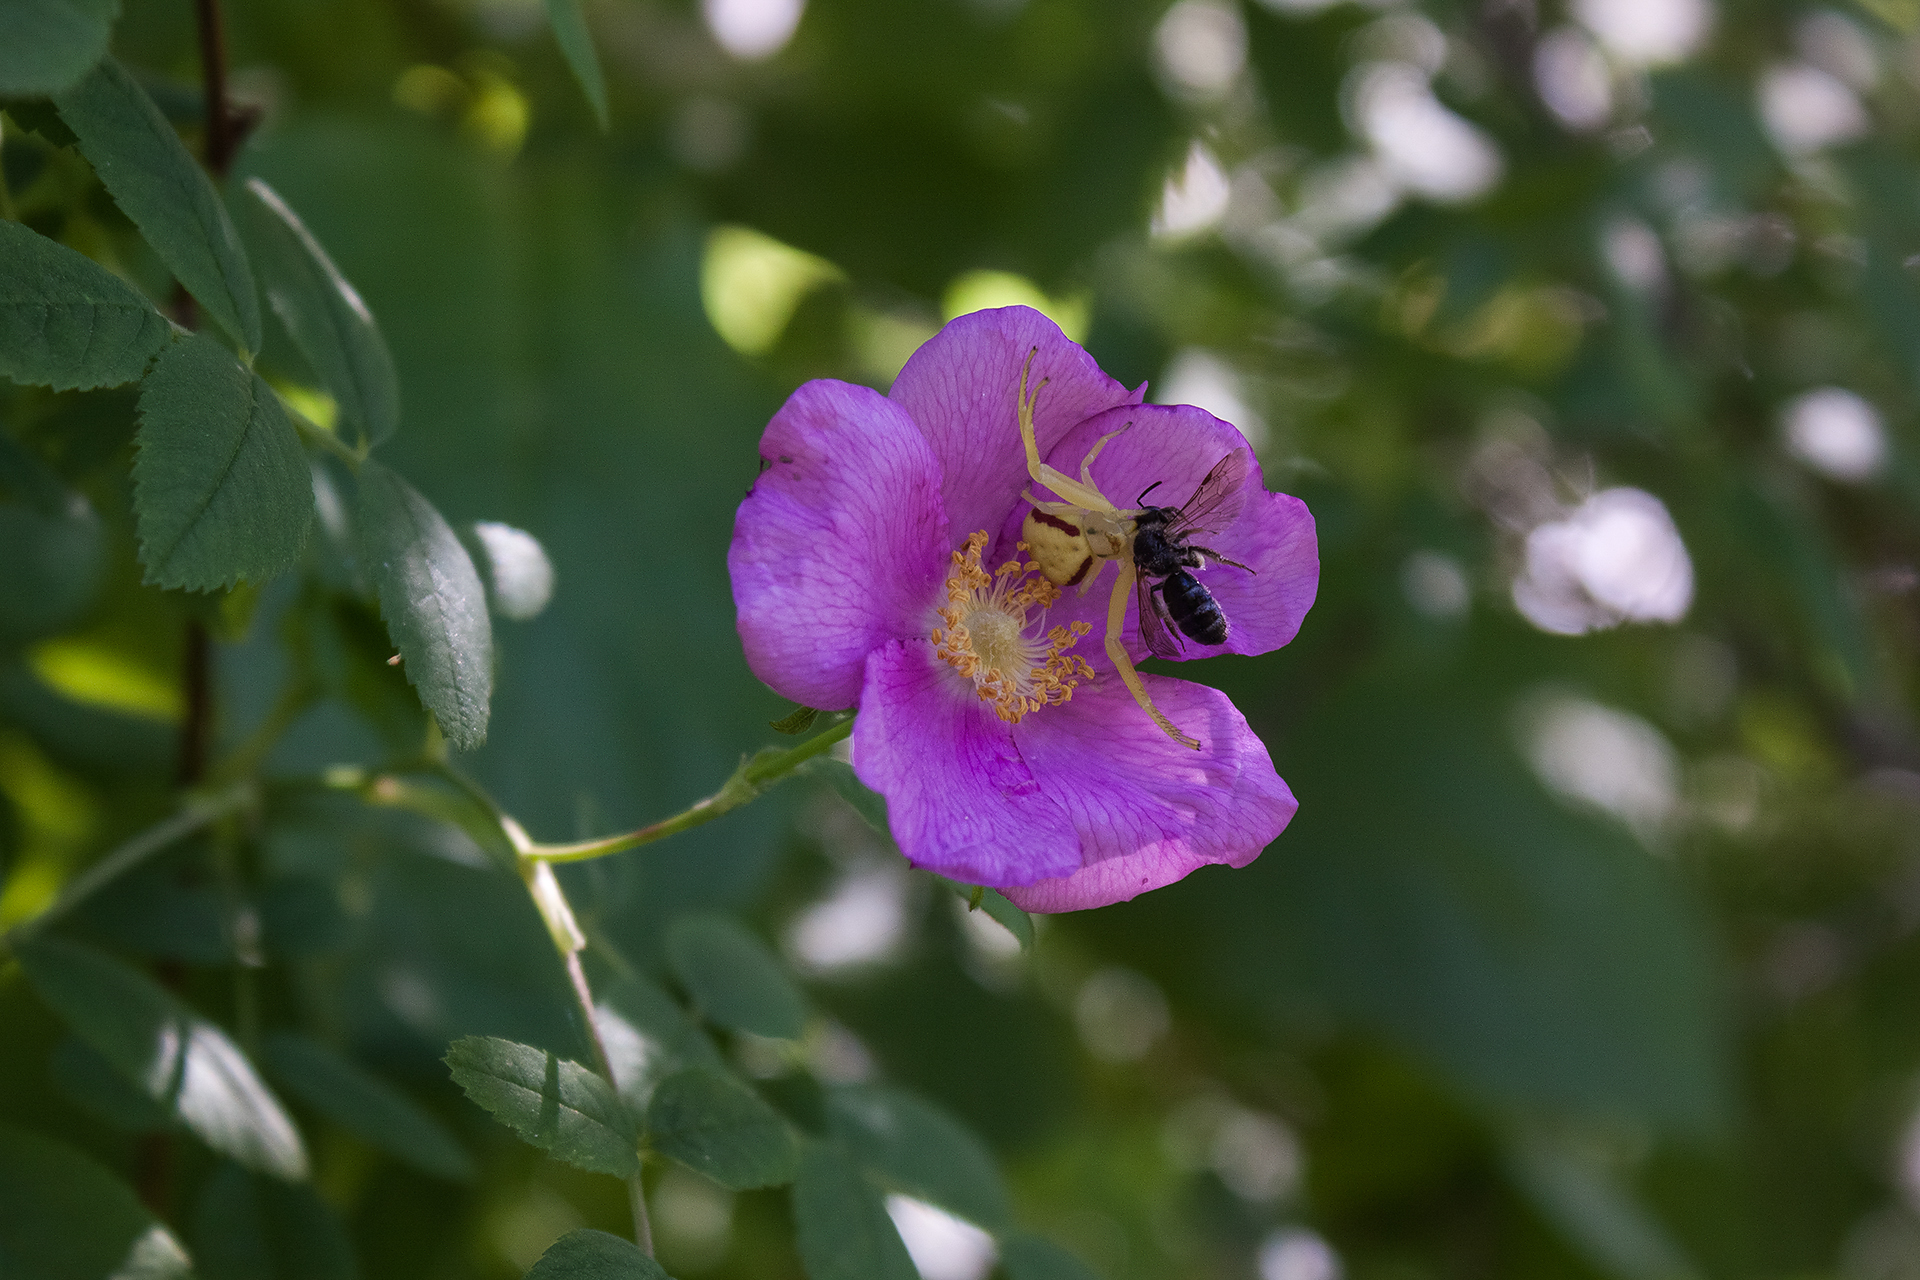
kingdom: Animalia
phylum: Arthropoda
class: Arachnida
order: Araneae
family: Thomisidae
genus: Misumena
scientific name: Misumena vatia
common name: Goldenrod crab spider
